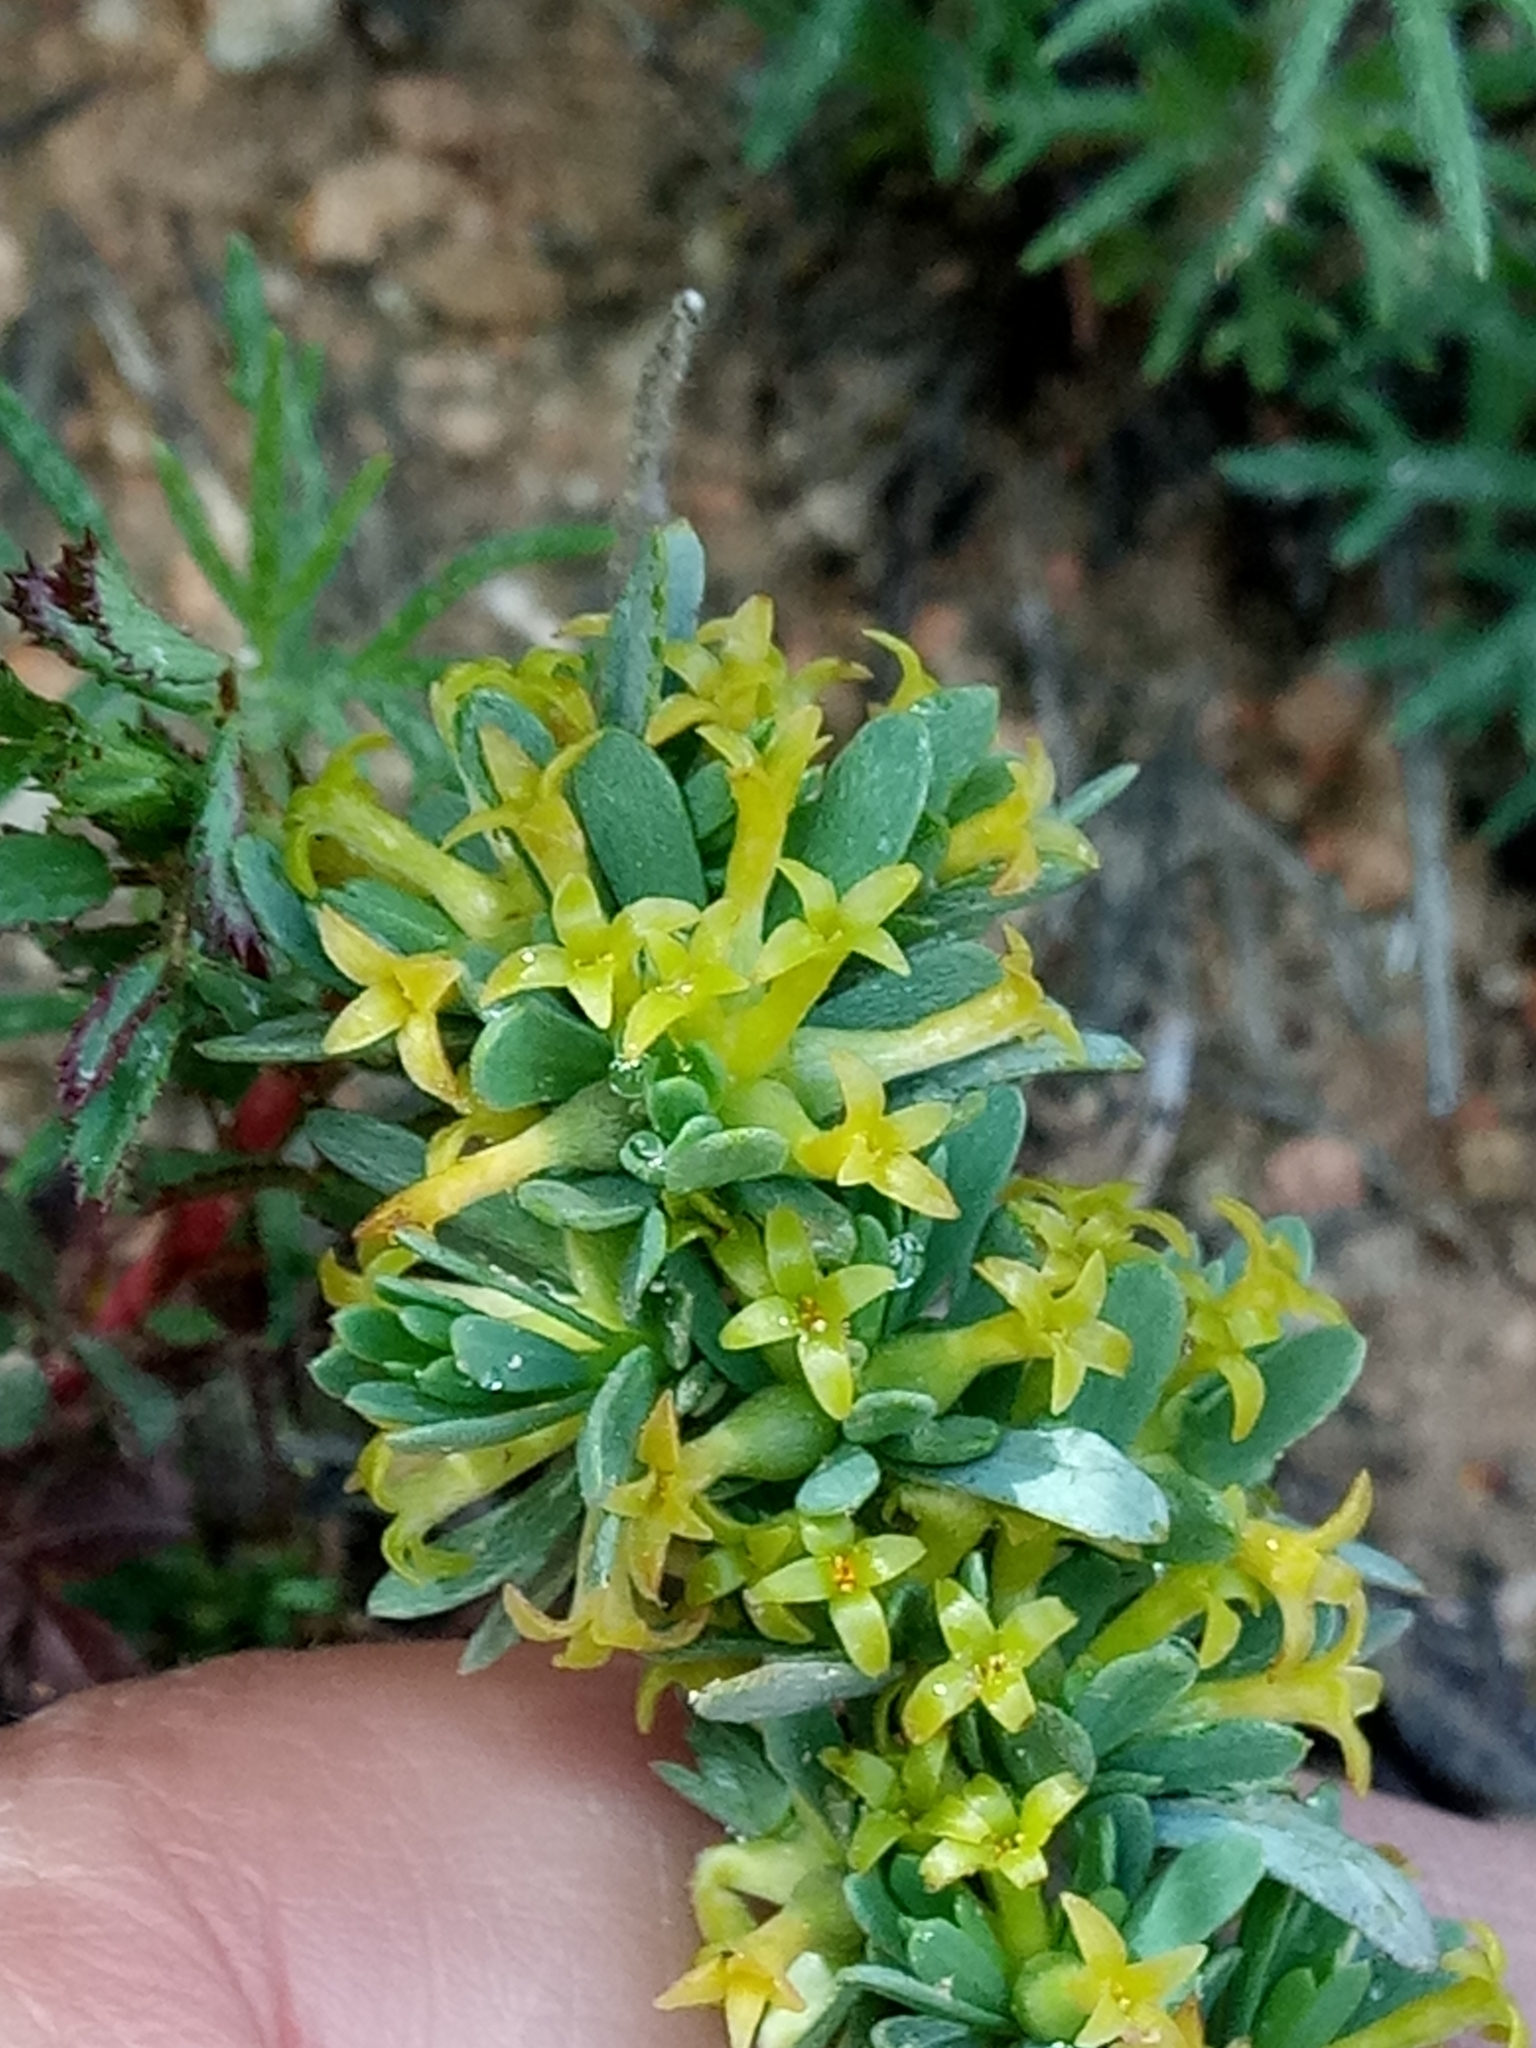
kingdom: Plantae
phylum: Tracheophyta
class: Magnoliopsida
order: Malvales
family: Thymelaeaceae
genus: Thymelaea
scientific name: Thymelaea argentata
